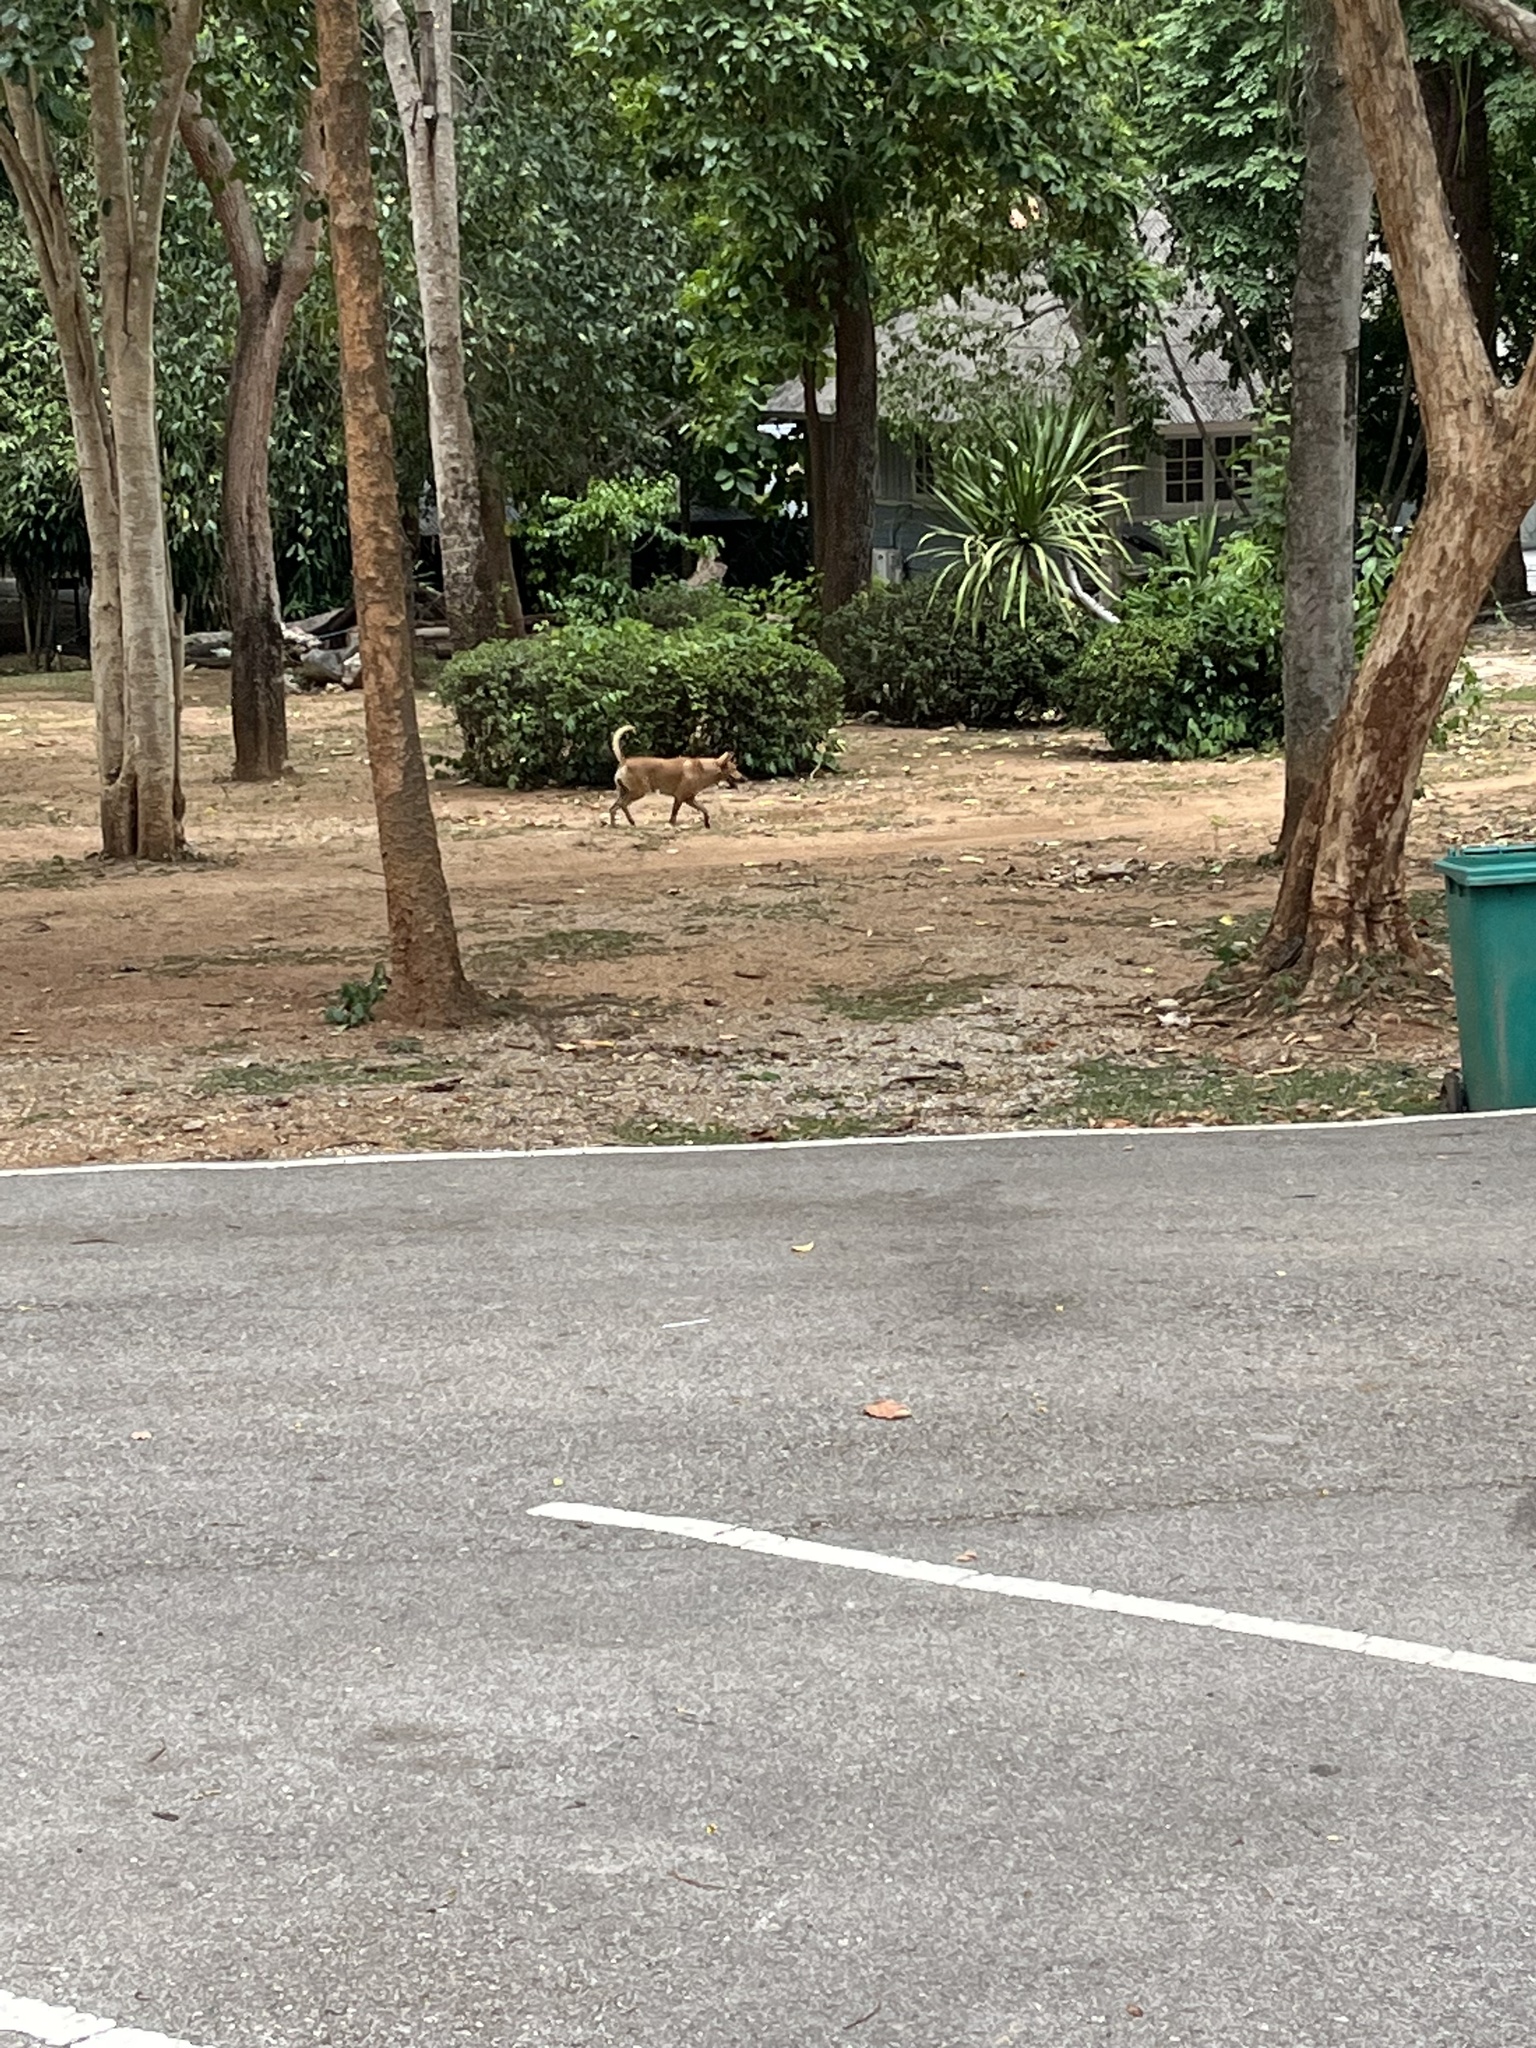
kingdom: Animalia
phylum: Chordata
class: Mammalia
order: Carnivora
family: Canidae
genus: Canis
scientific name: Canis lupus
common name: Gray wolf
